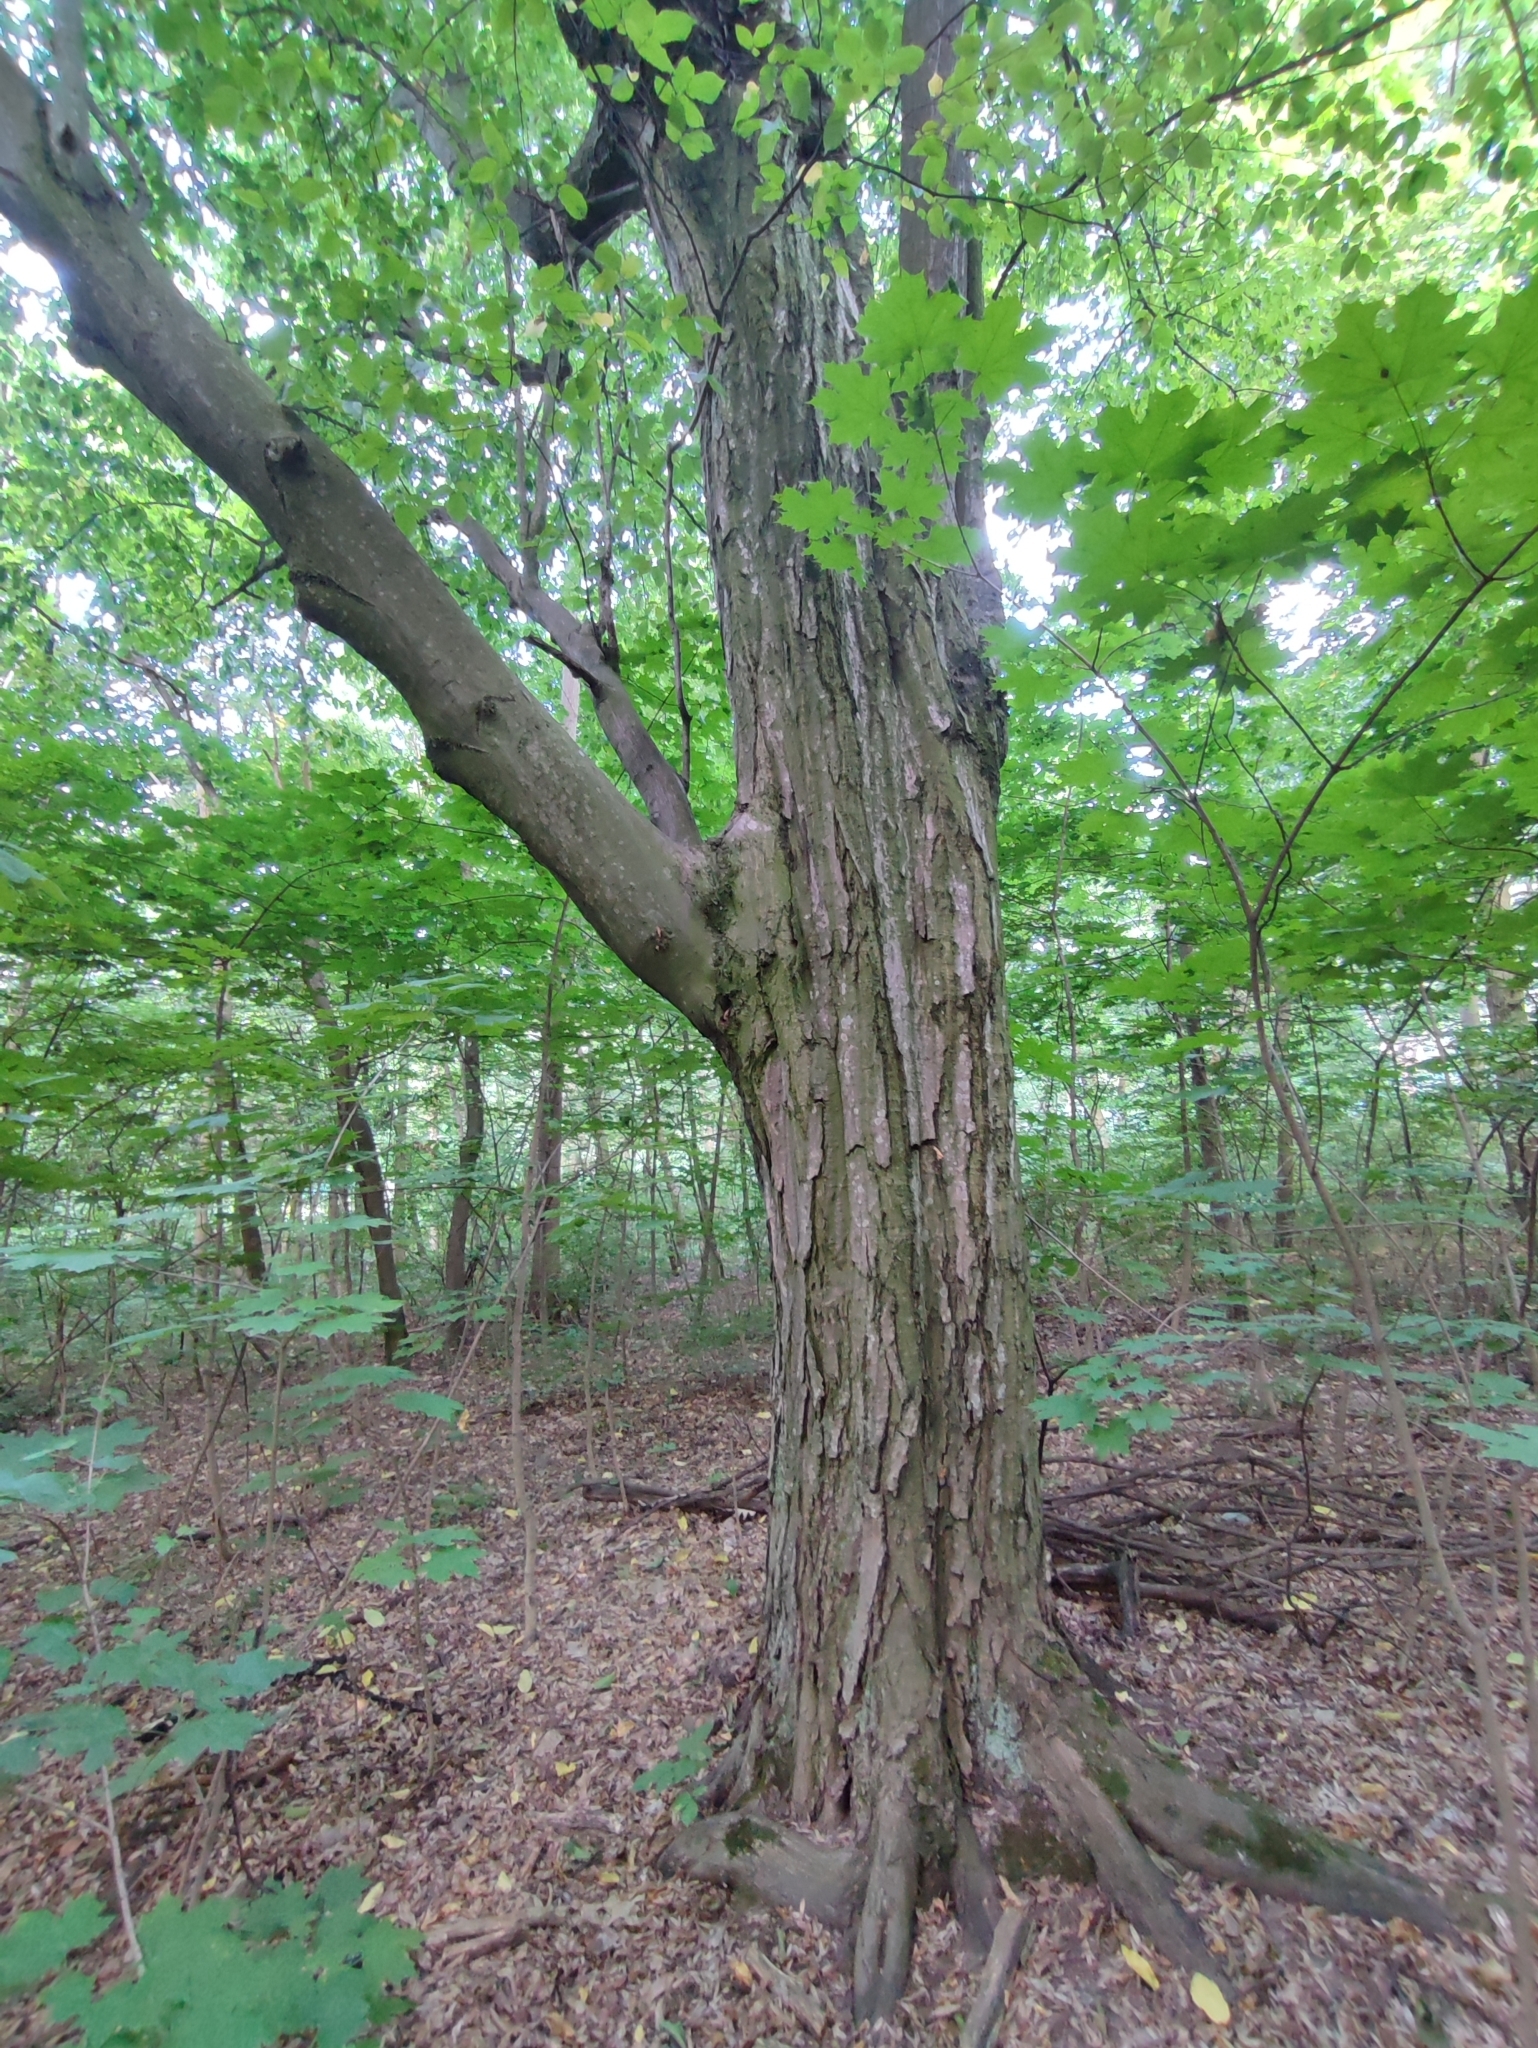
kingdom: Plantae
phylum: Tracheophyta
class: Magnoliopsida
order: Fagales
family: Betulaceae
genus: Carpinus
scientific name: Carpinus betulus
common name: Hornbeam
